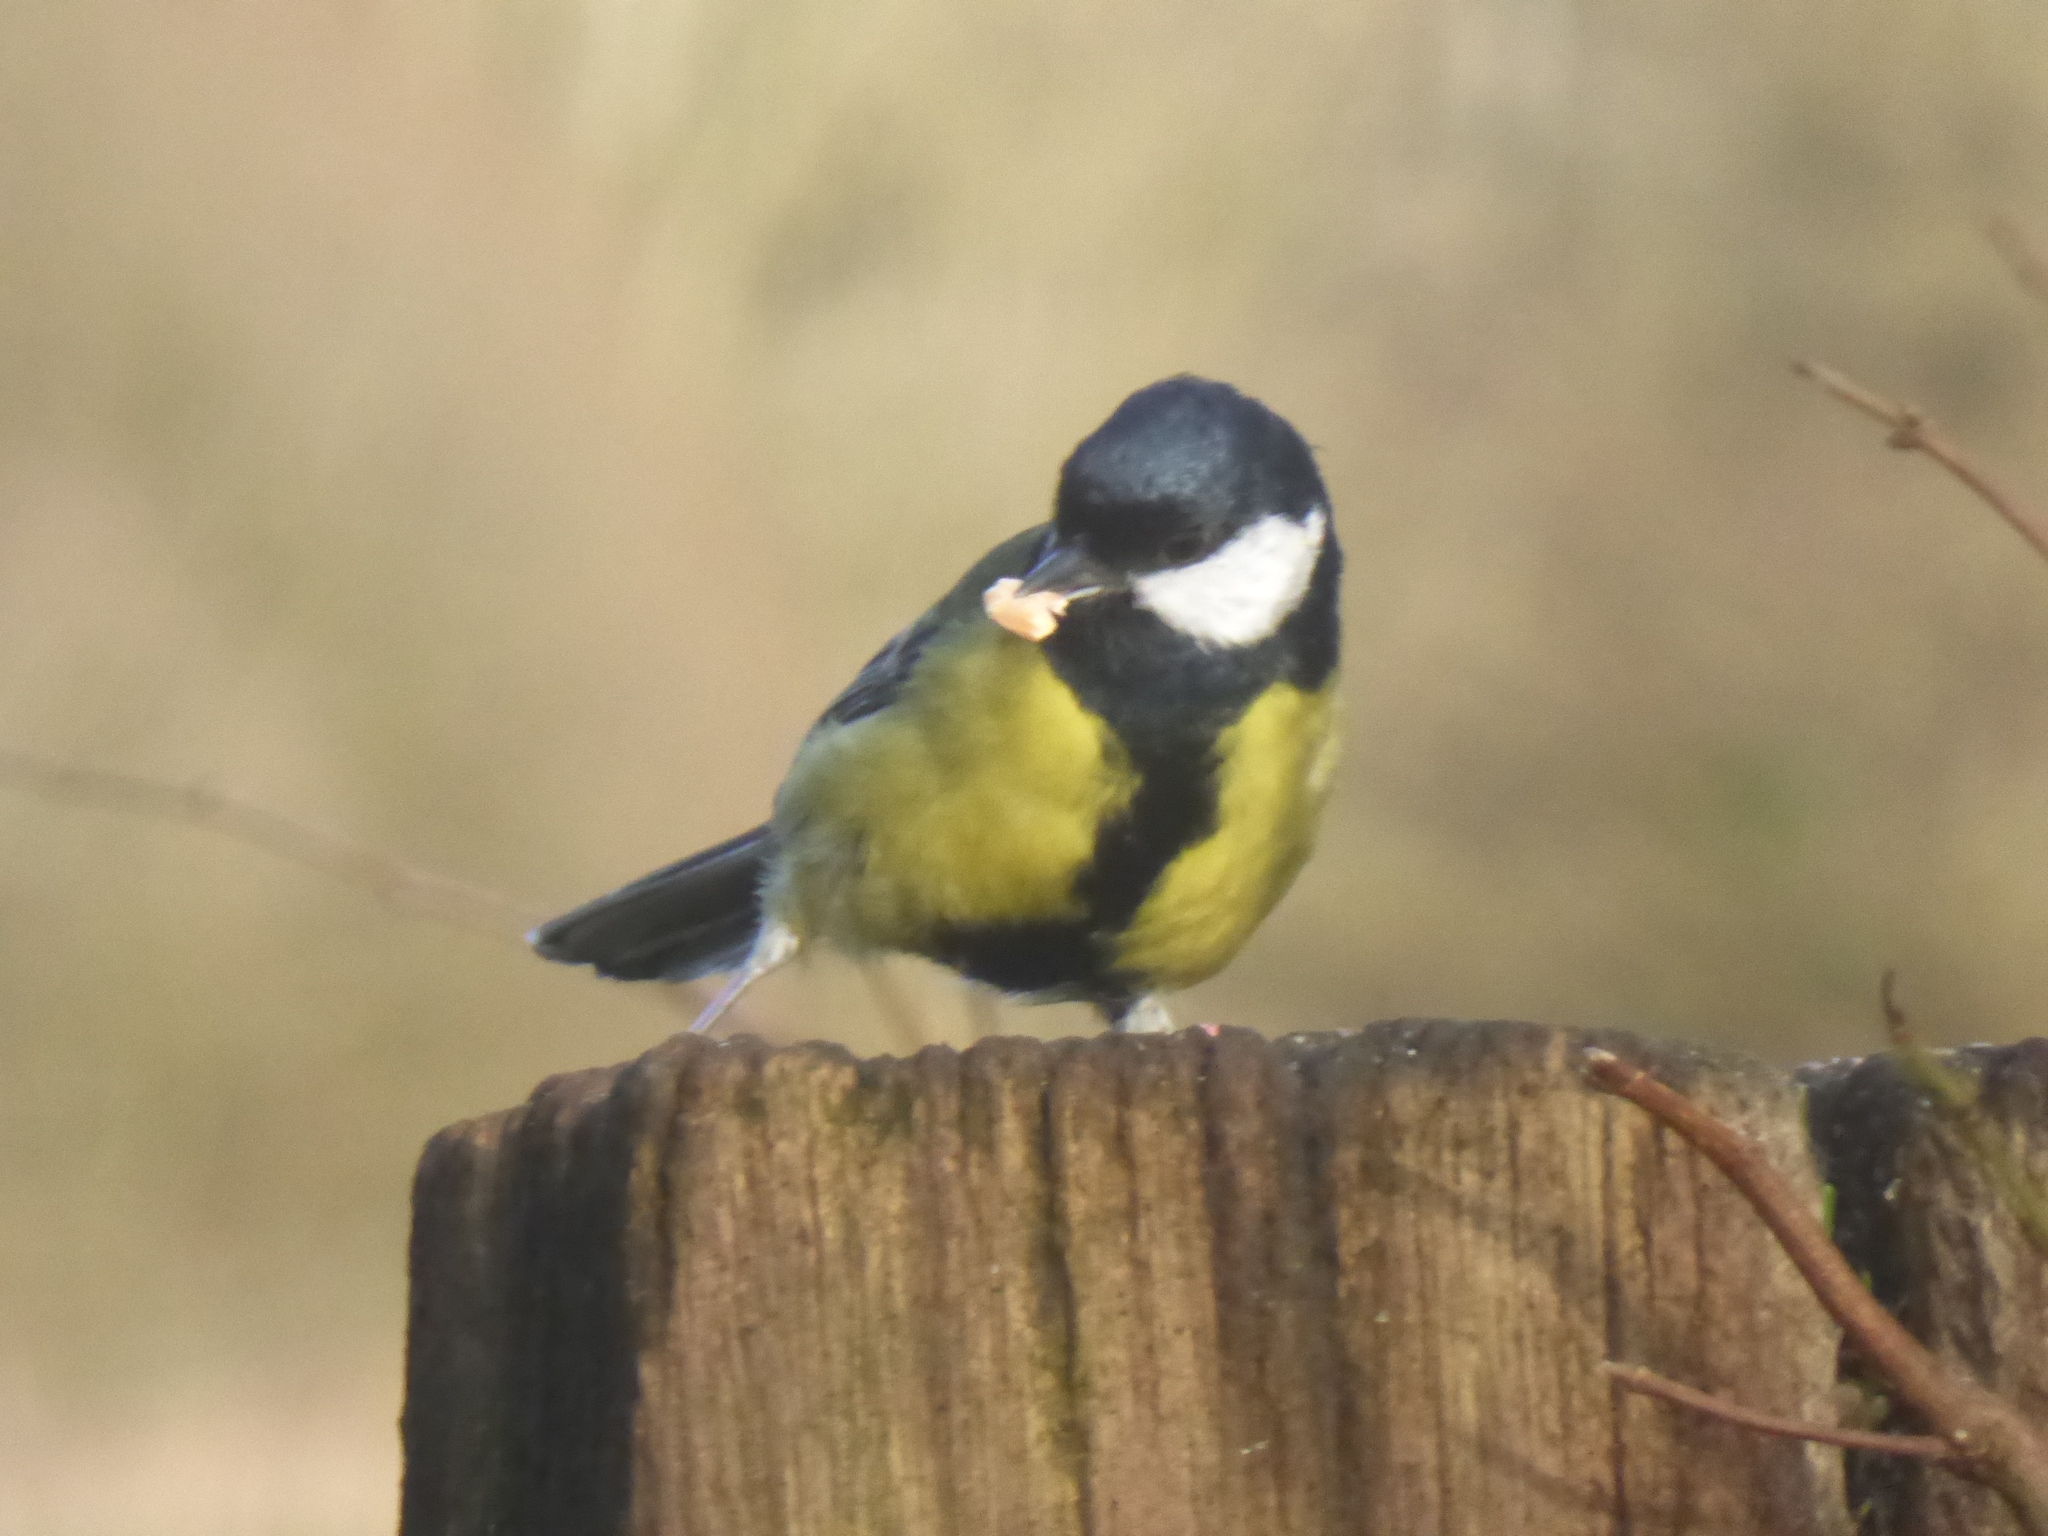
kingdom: Animalia
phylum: Chordata
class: Aves
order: Passeriformes
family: Paridae
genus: Parus
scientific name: Parus major
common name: Great tit
